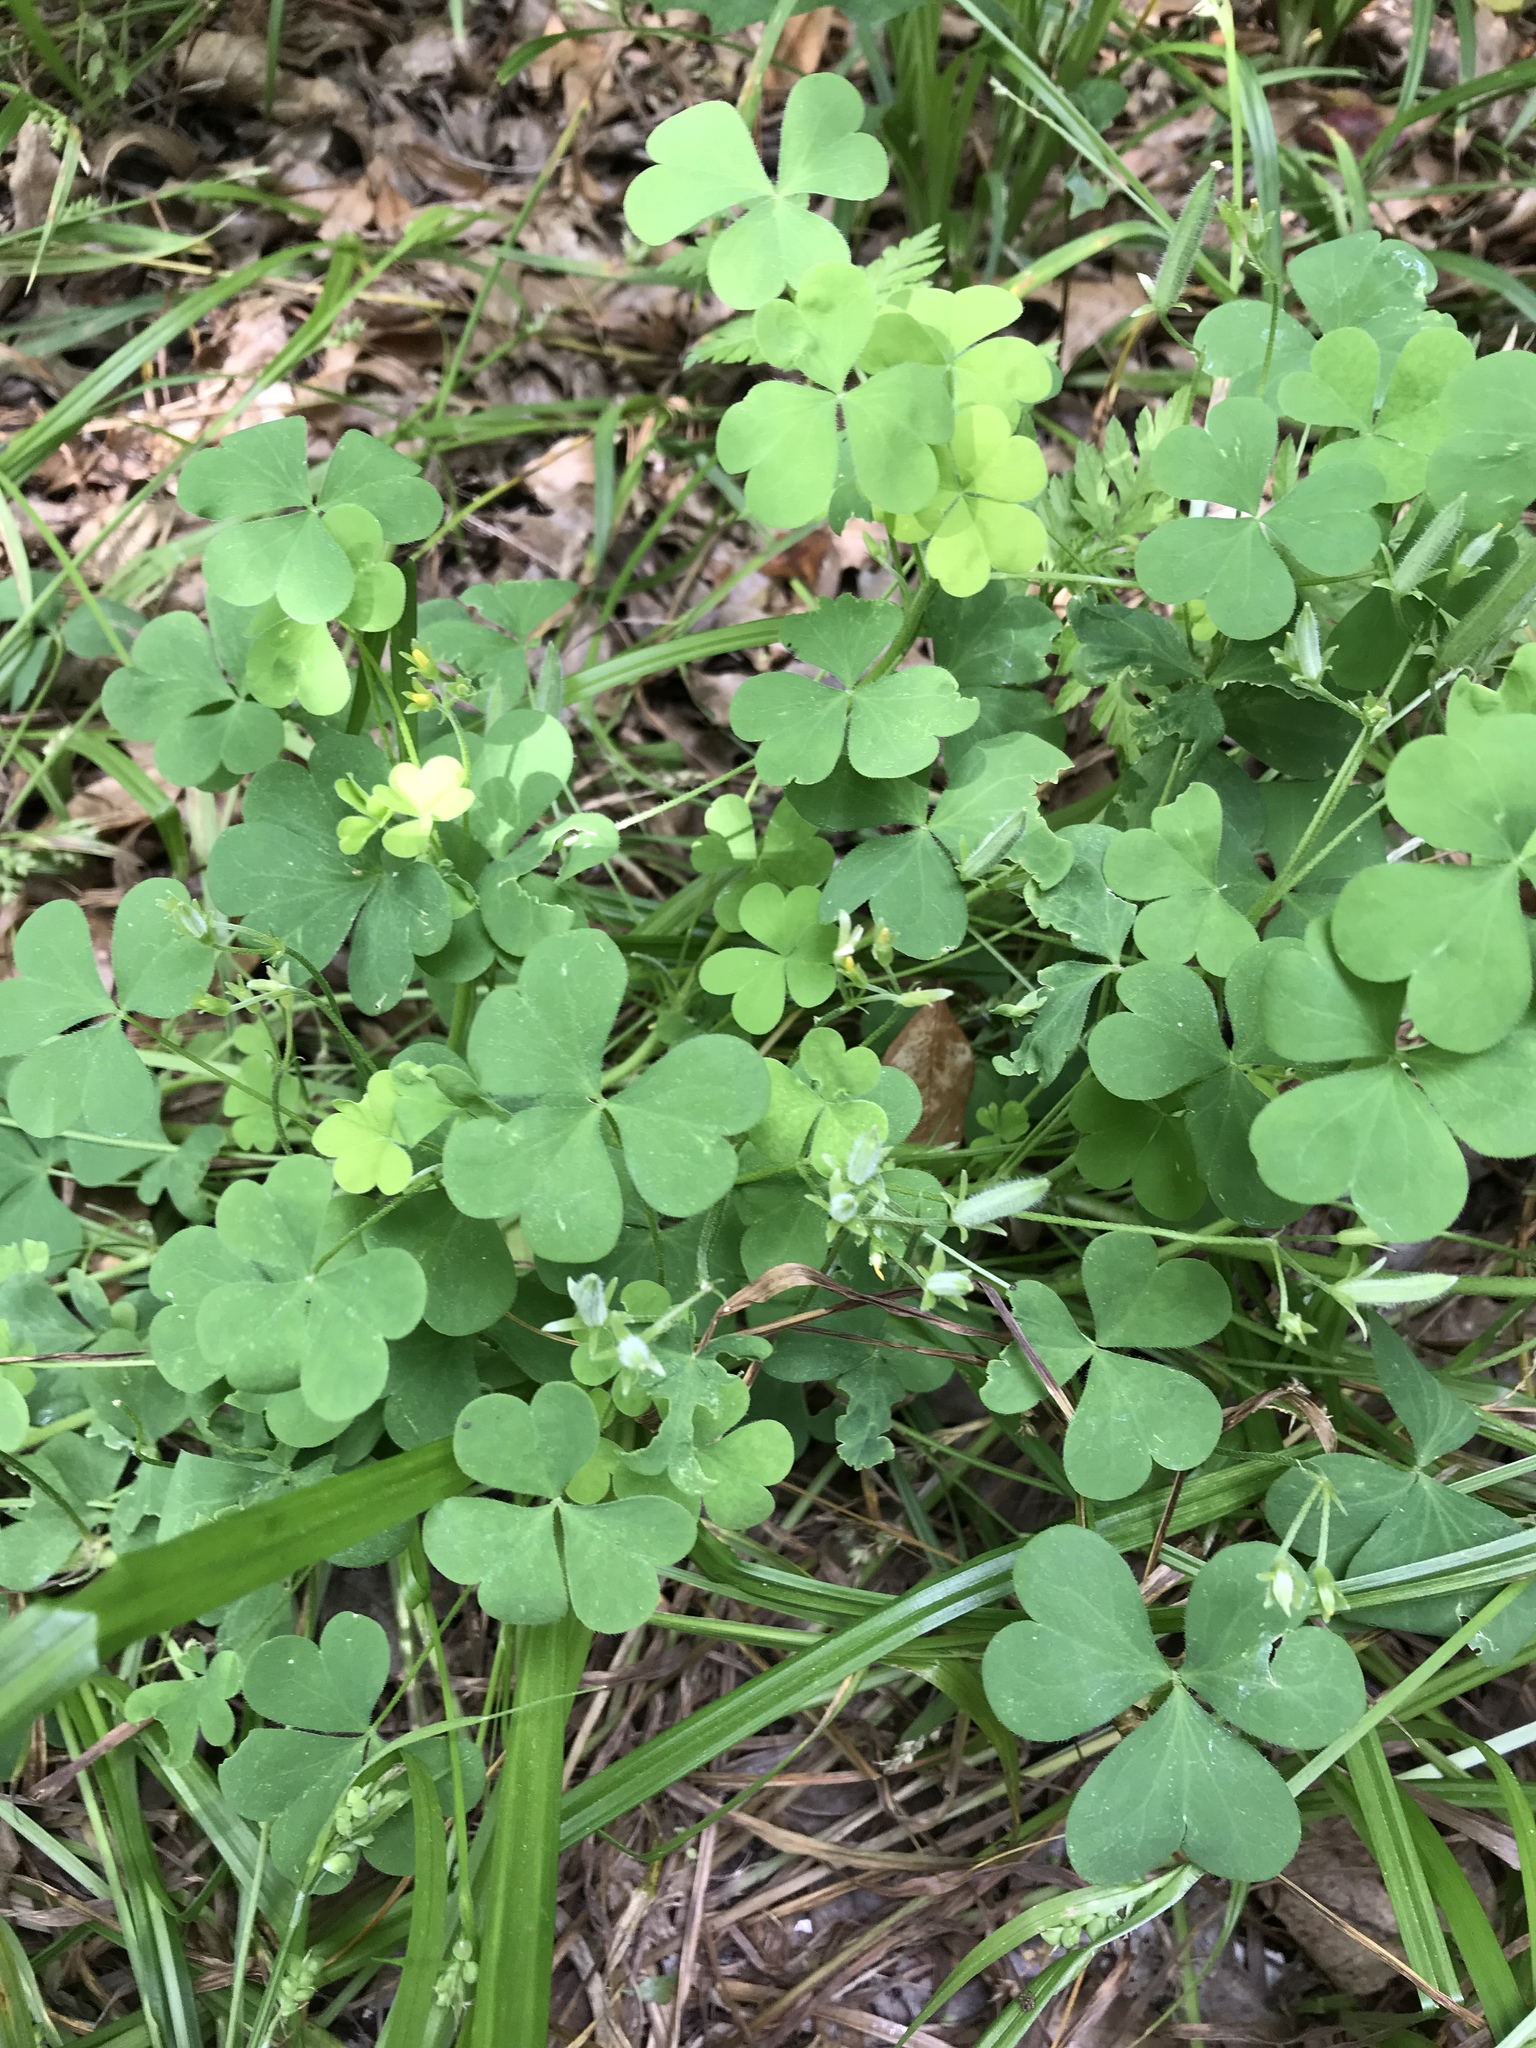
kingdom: Plantae
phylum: Tracheophyta
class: Magnoliopsida
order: Oxalidales
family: Oxalidaceae
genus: Oxalis
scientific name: Oxalis dillenii
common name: Sussex yellow-sorrel
